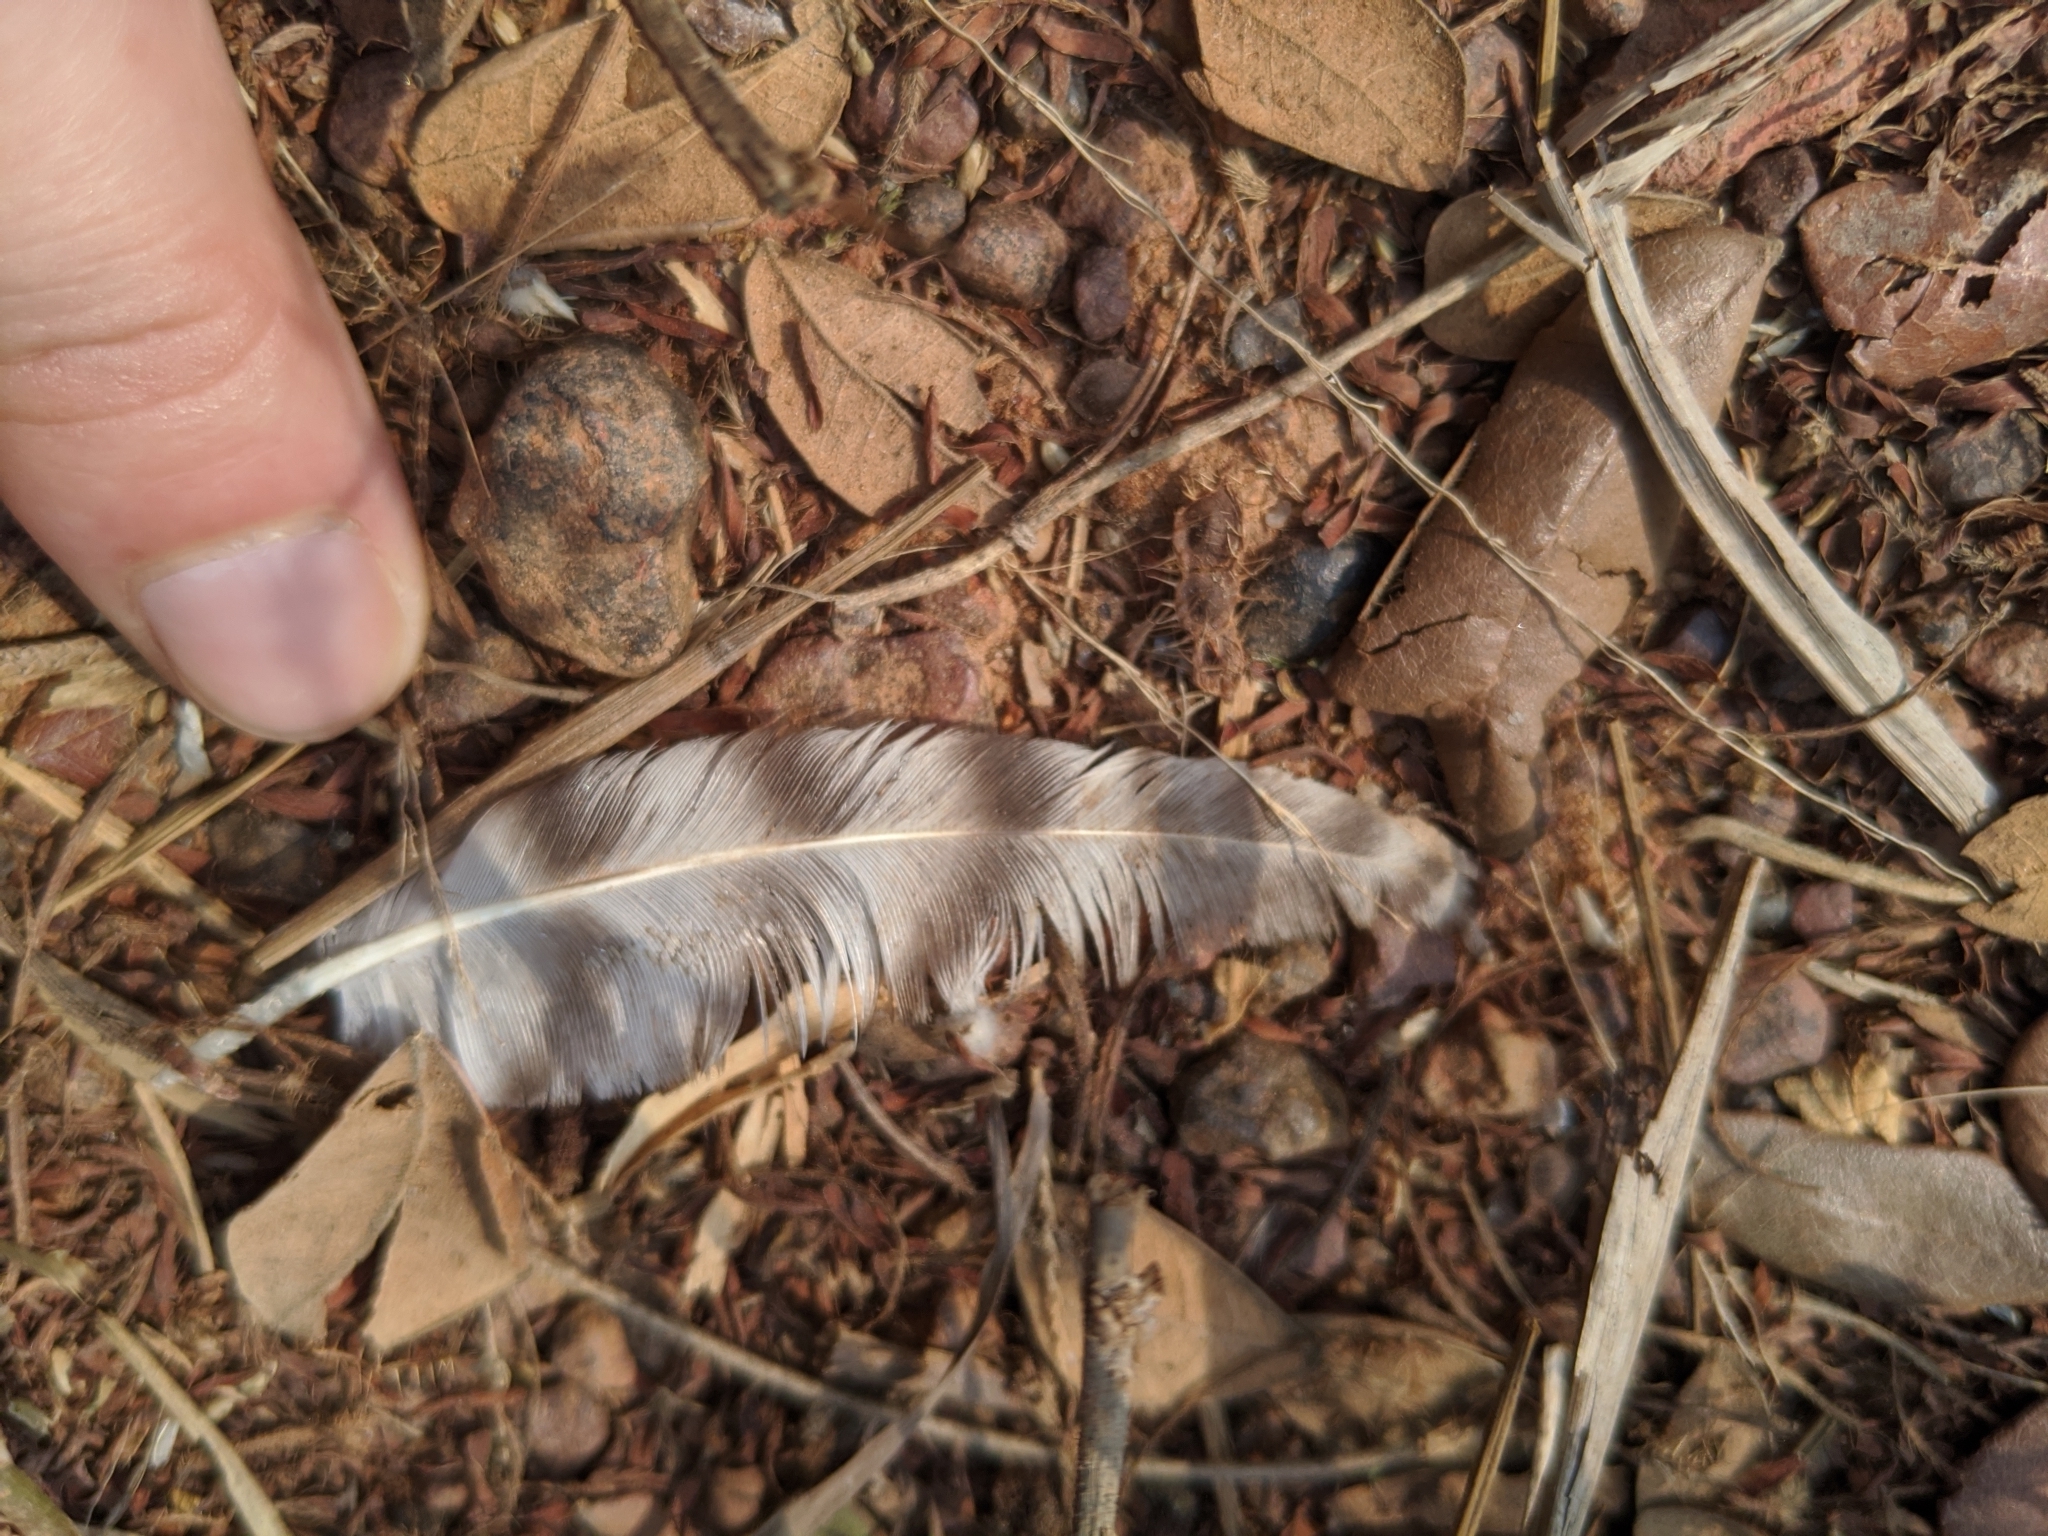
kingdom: Animalia
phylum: Chordata
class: Aves
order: Galliformes
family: Phasianidae
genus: Gallus
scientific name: Gallus gallus
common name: Red junglefowl
